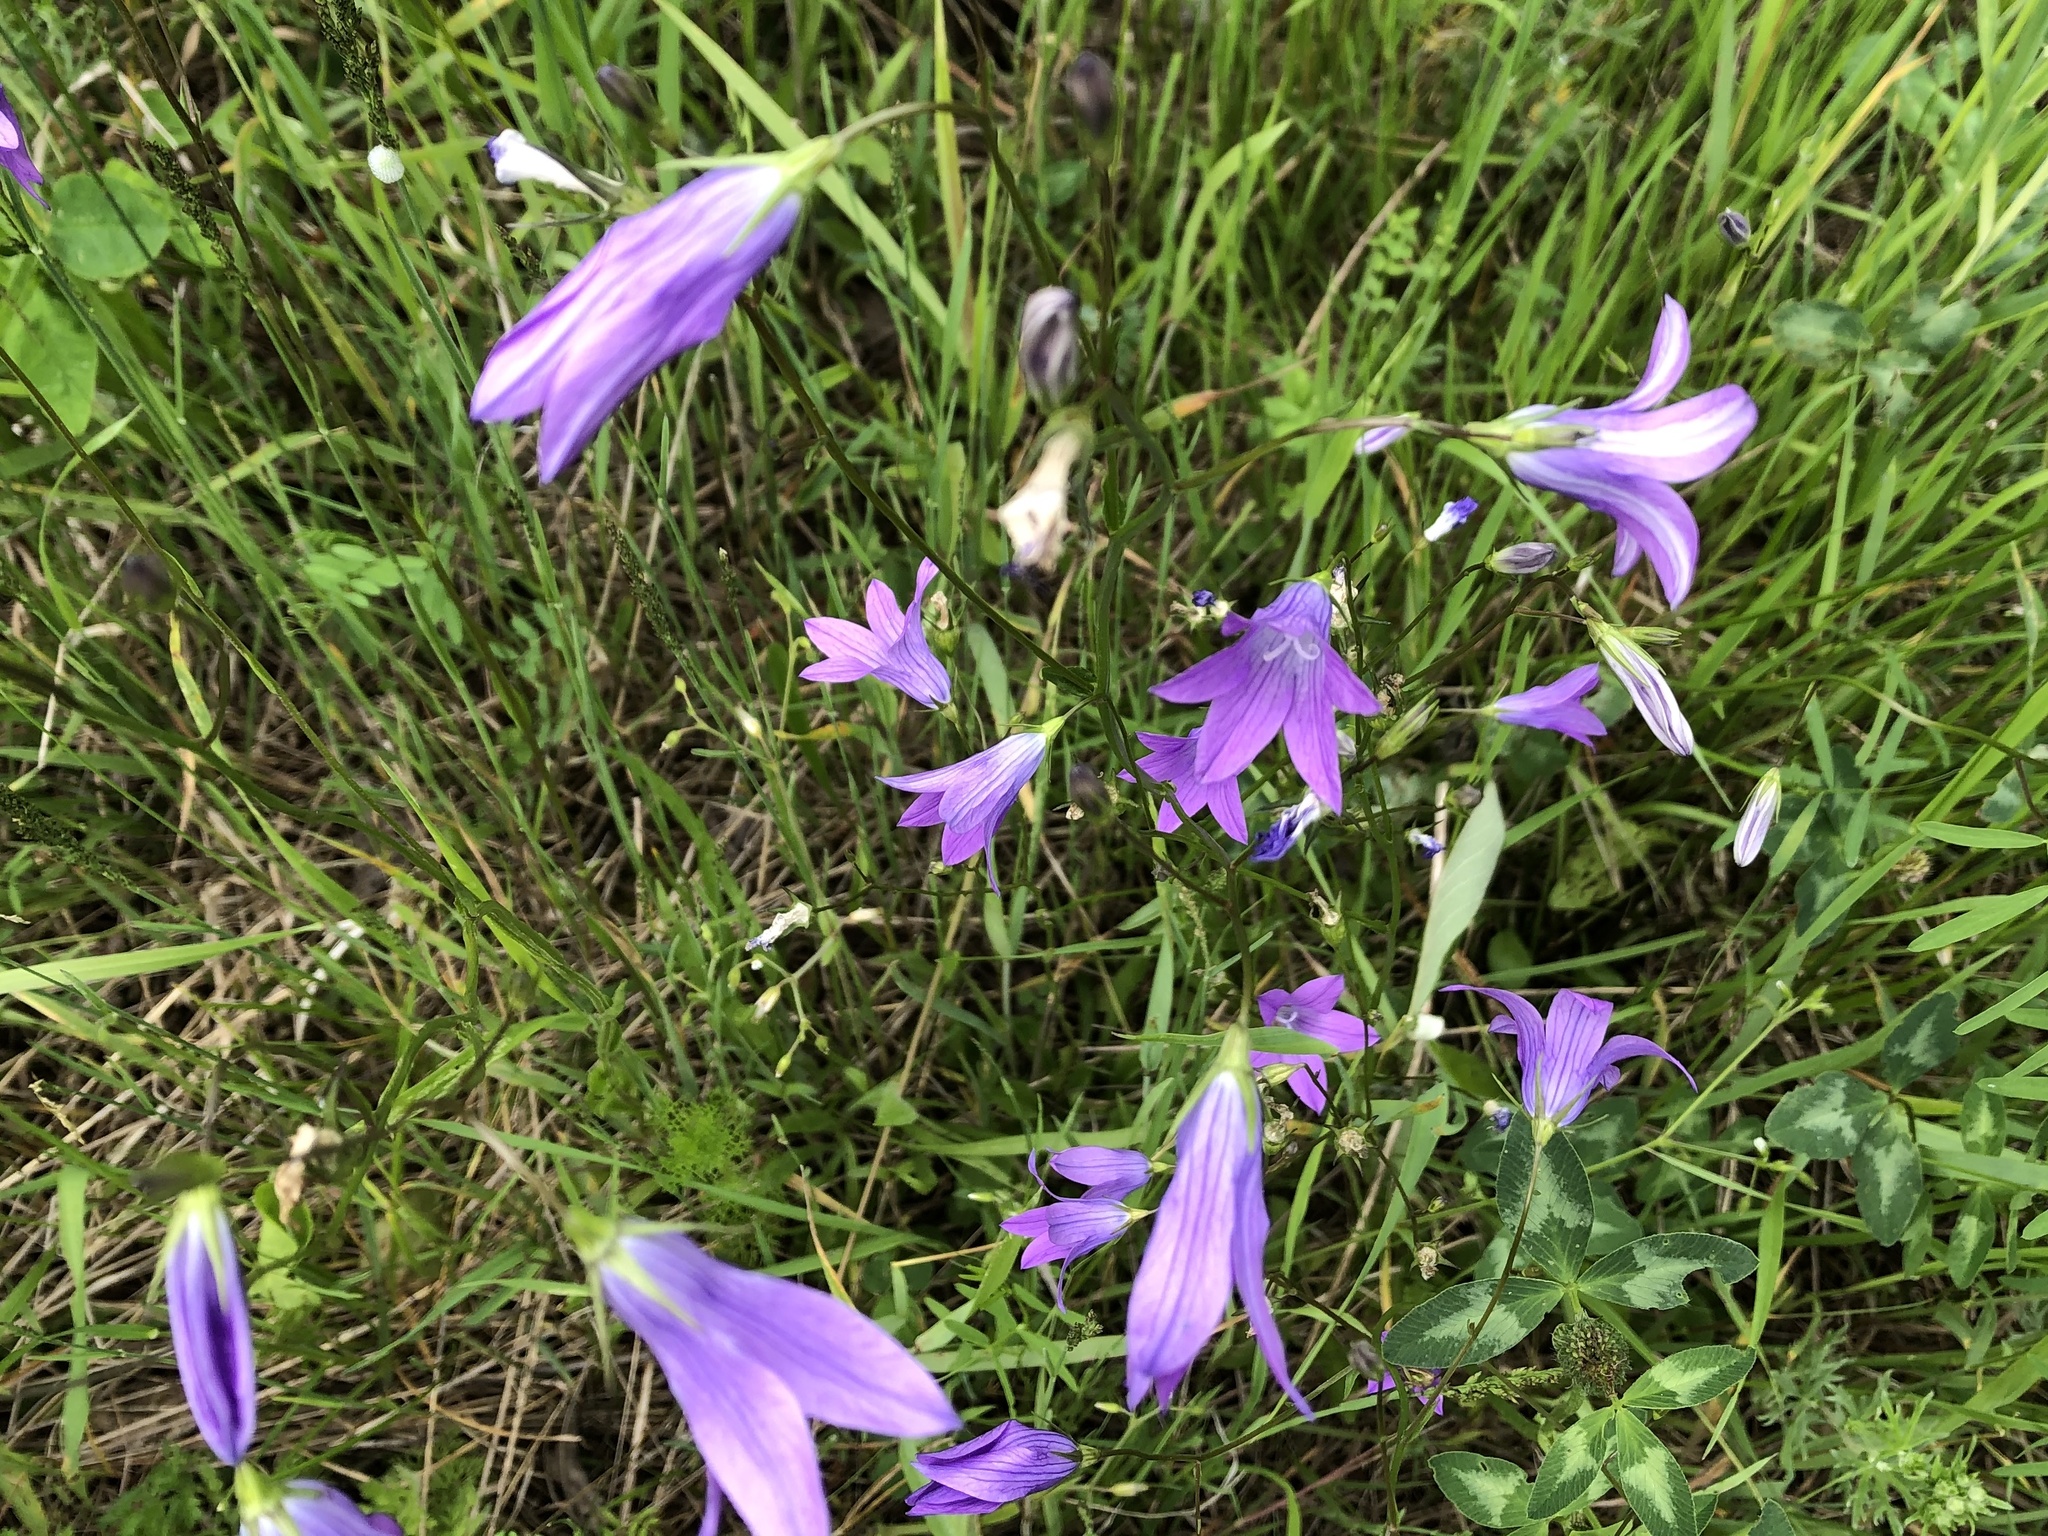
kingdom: Plantae
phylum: Tracheophyta
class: Magnoliopsida
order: Asterales
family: Campanulaceae
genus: Campanula
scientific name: Campanula patula
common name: Spreading bellflower
